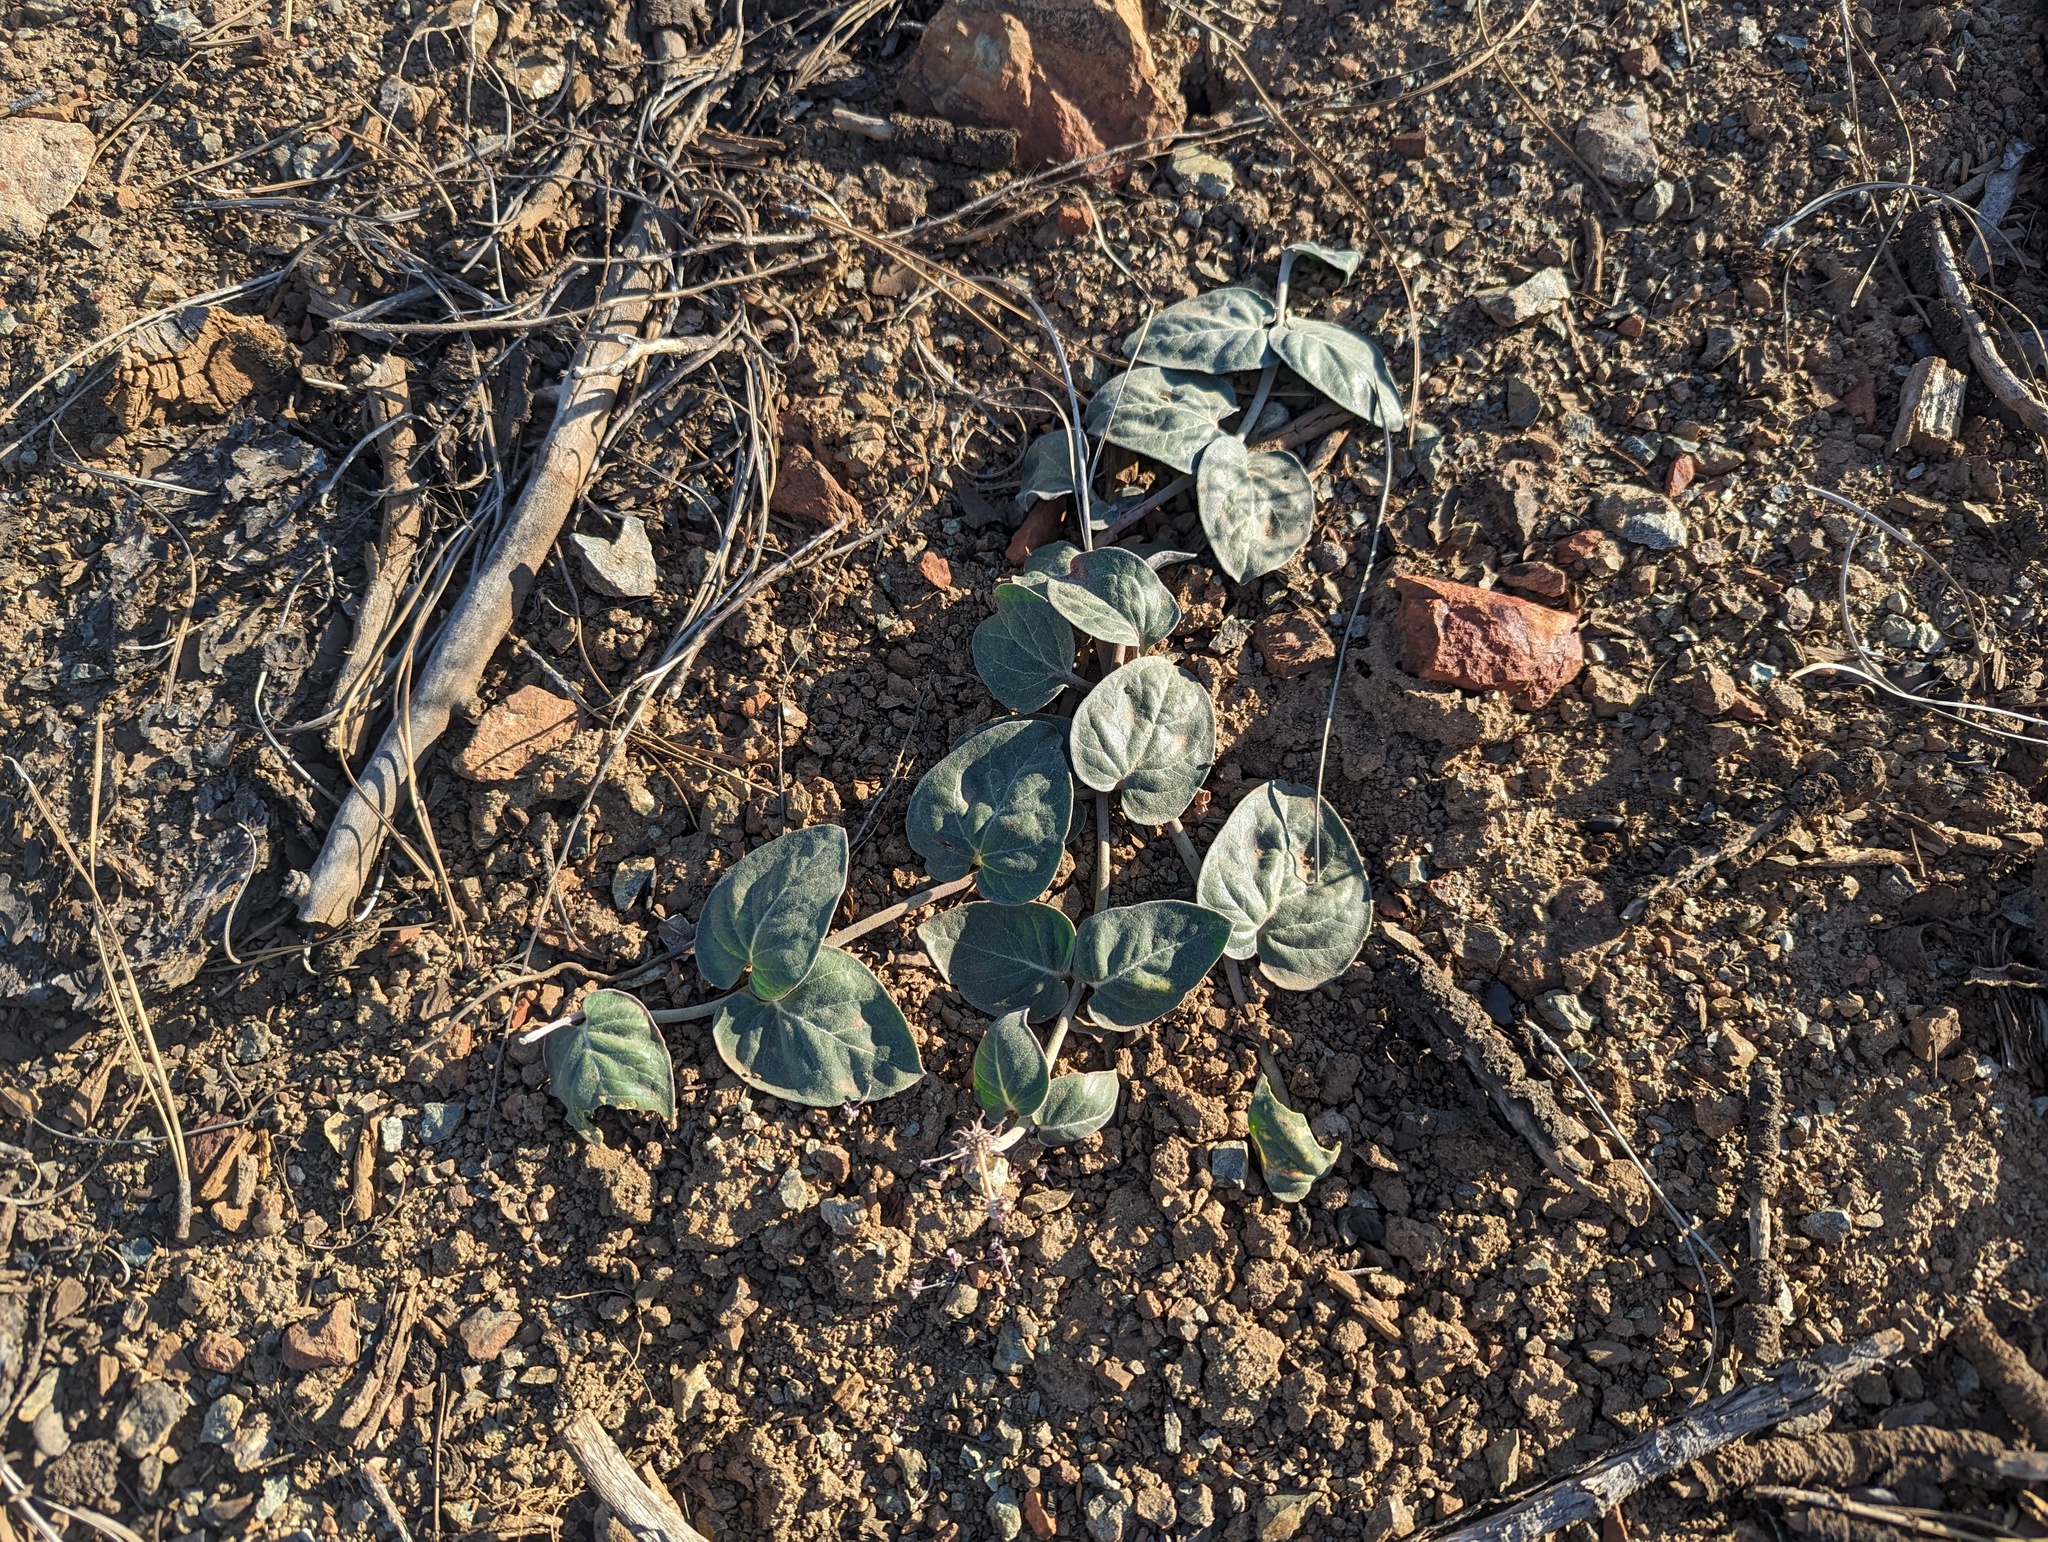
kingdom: Plantae
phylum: Tracheophyta
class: Magnoliopsida
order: Gentianales
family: Apocynaceae
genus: Asclepias
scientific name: Asclepias solanoana
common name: Serpentine milkweed
